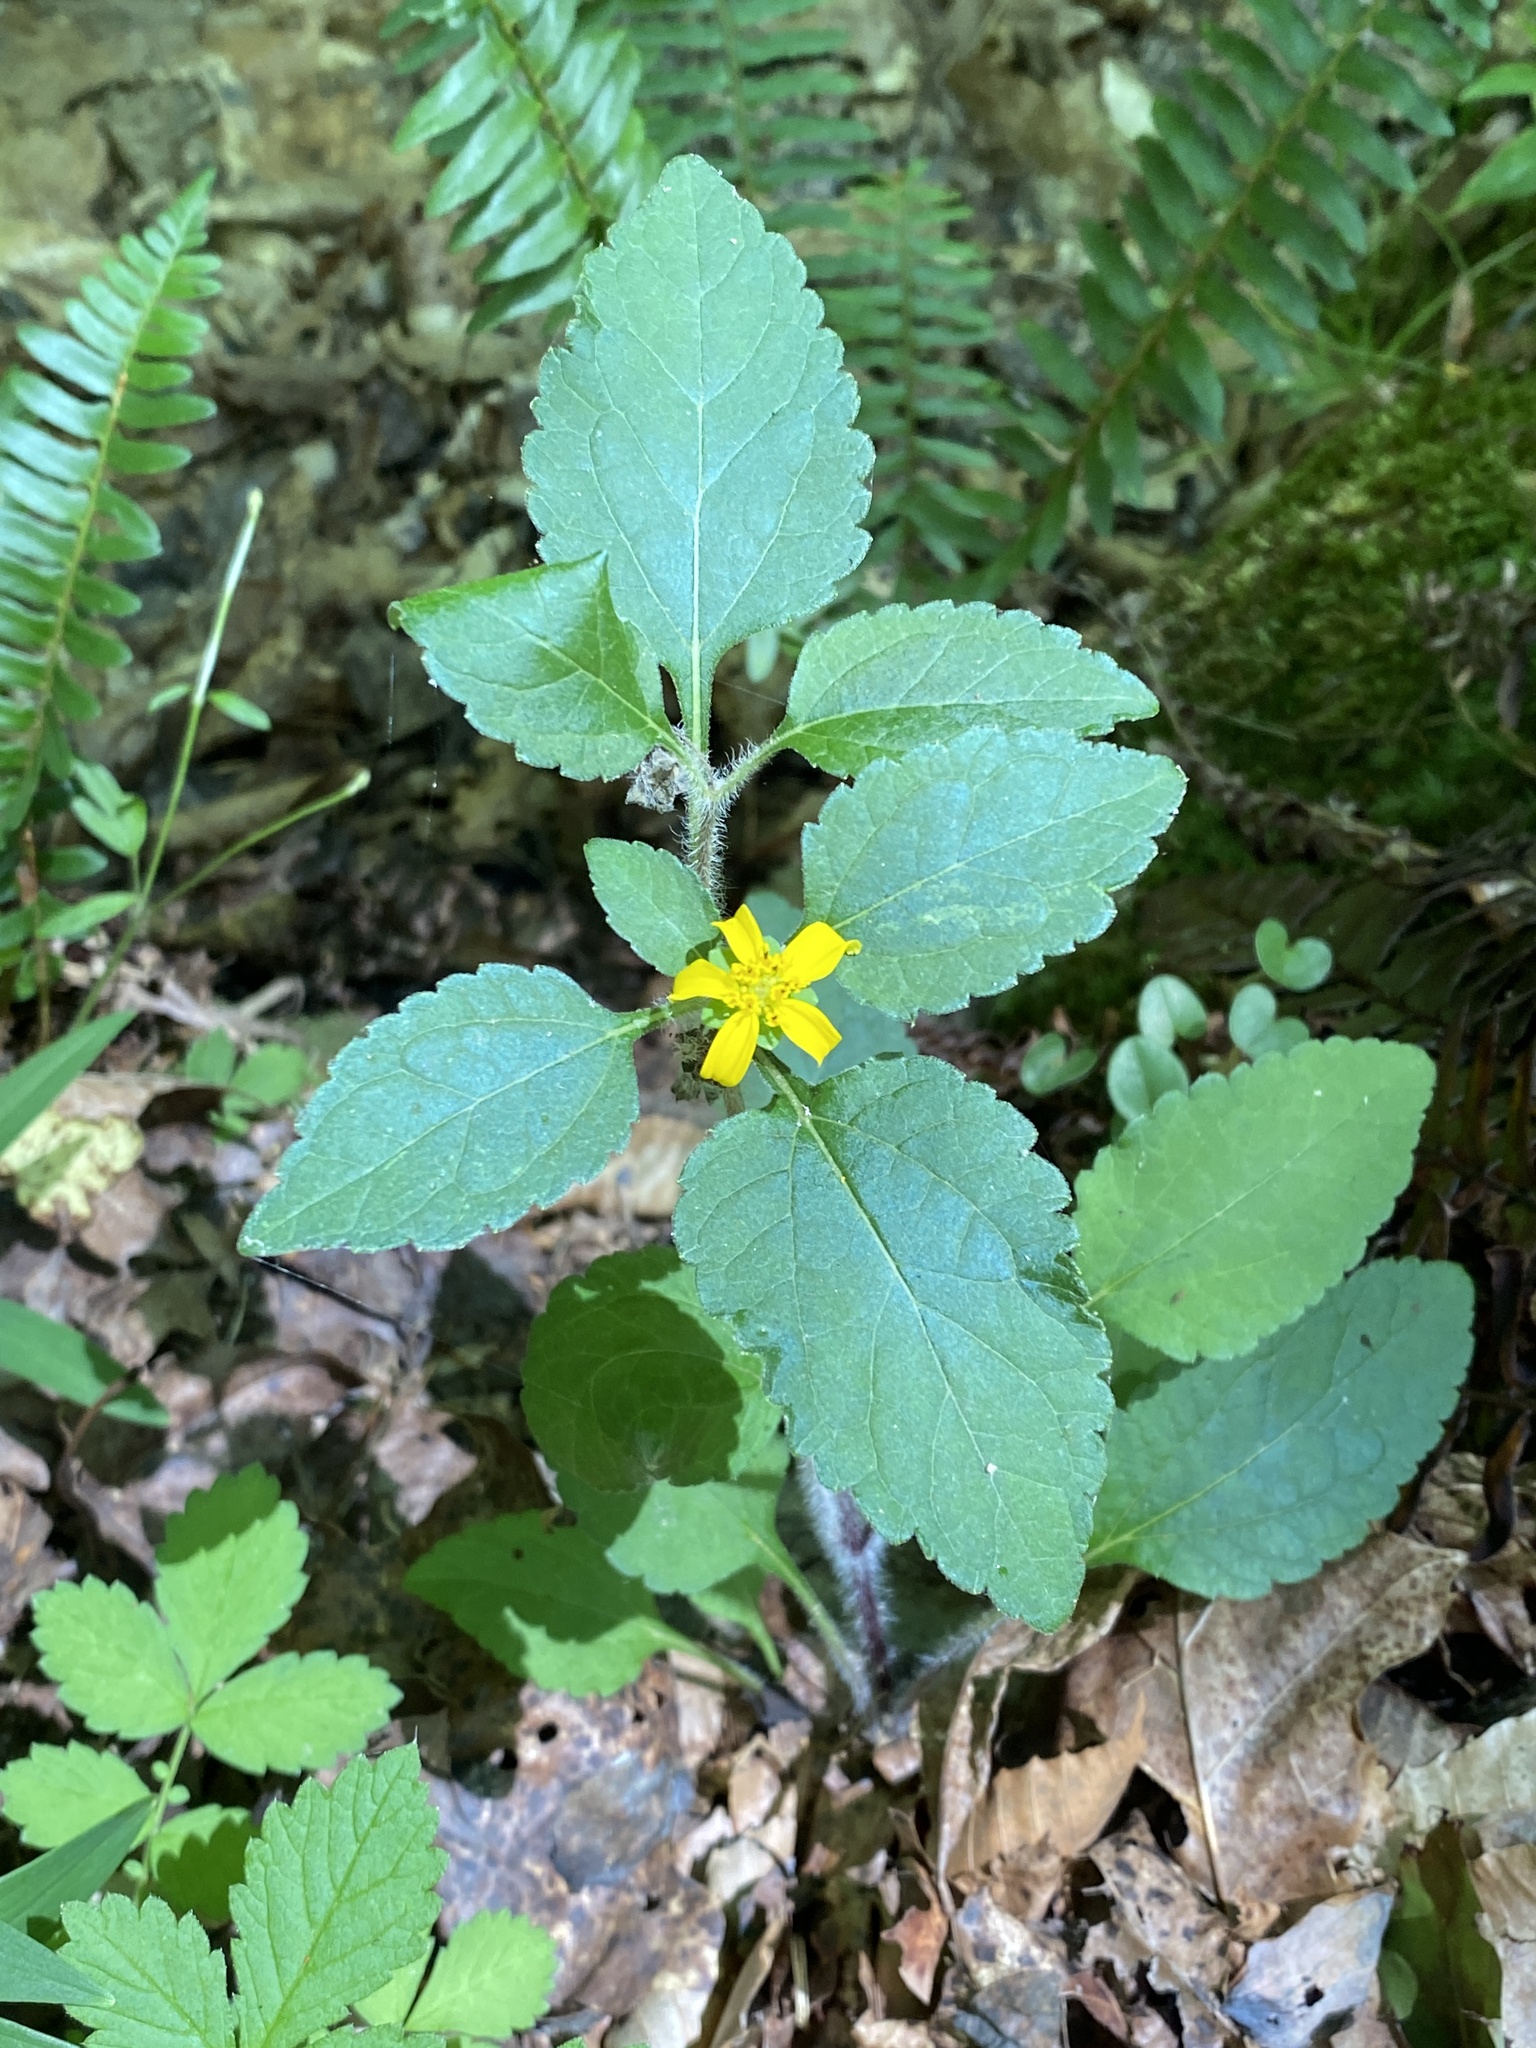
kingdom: Plantae
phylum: Tracheophyta
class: Magnoliopsida
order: Asterales
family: Asteraceae
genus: Chrysogonum
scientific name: Chrysogonum virginianum
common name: Golden-knee
